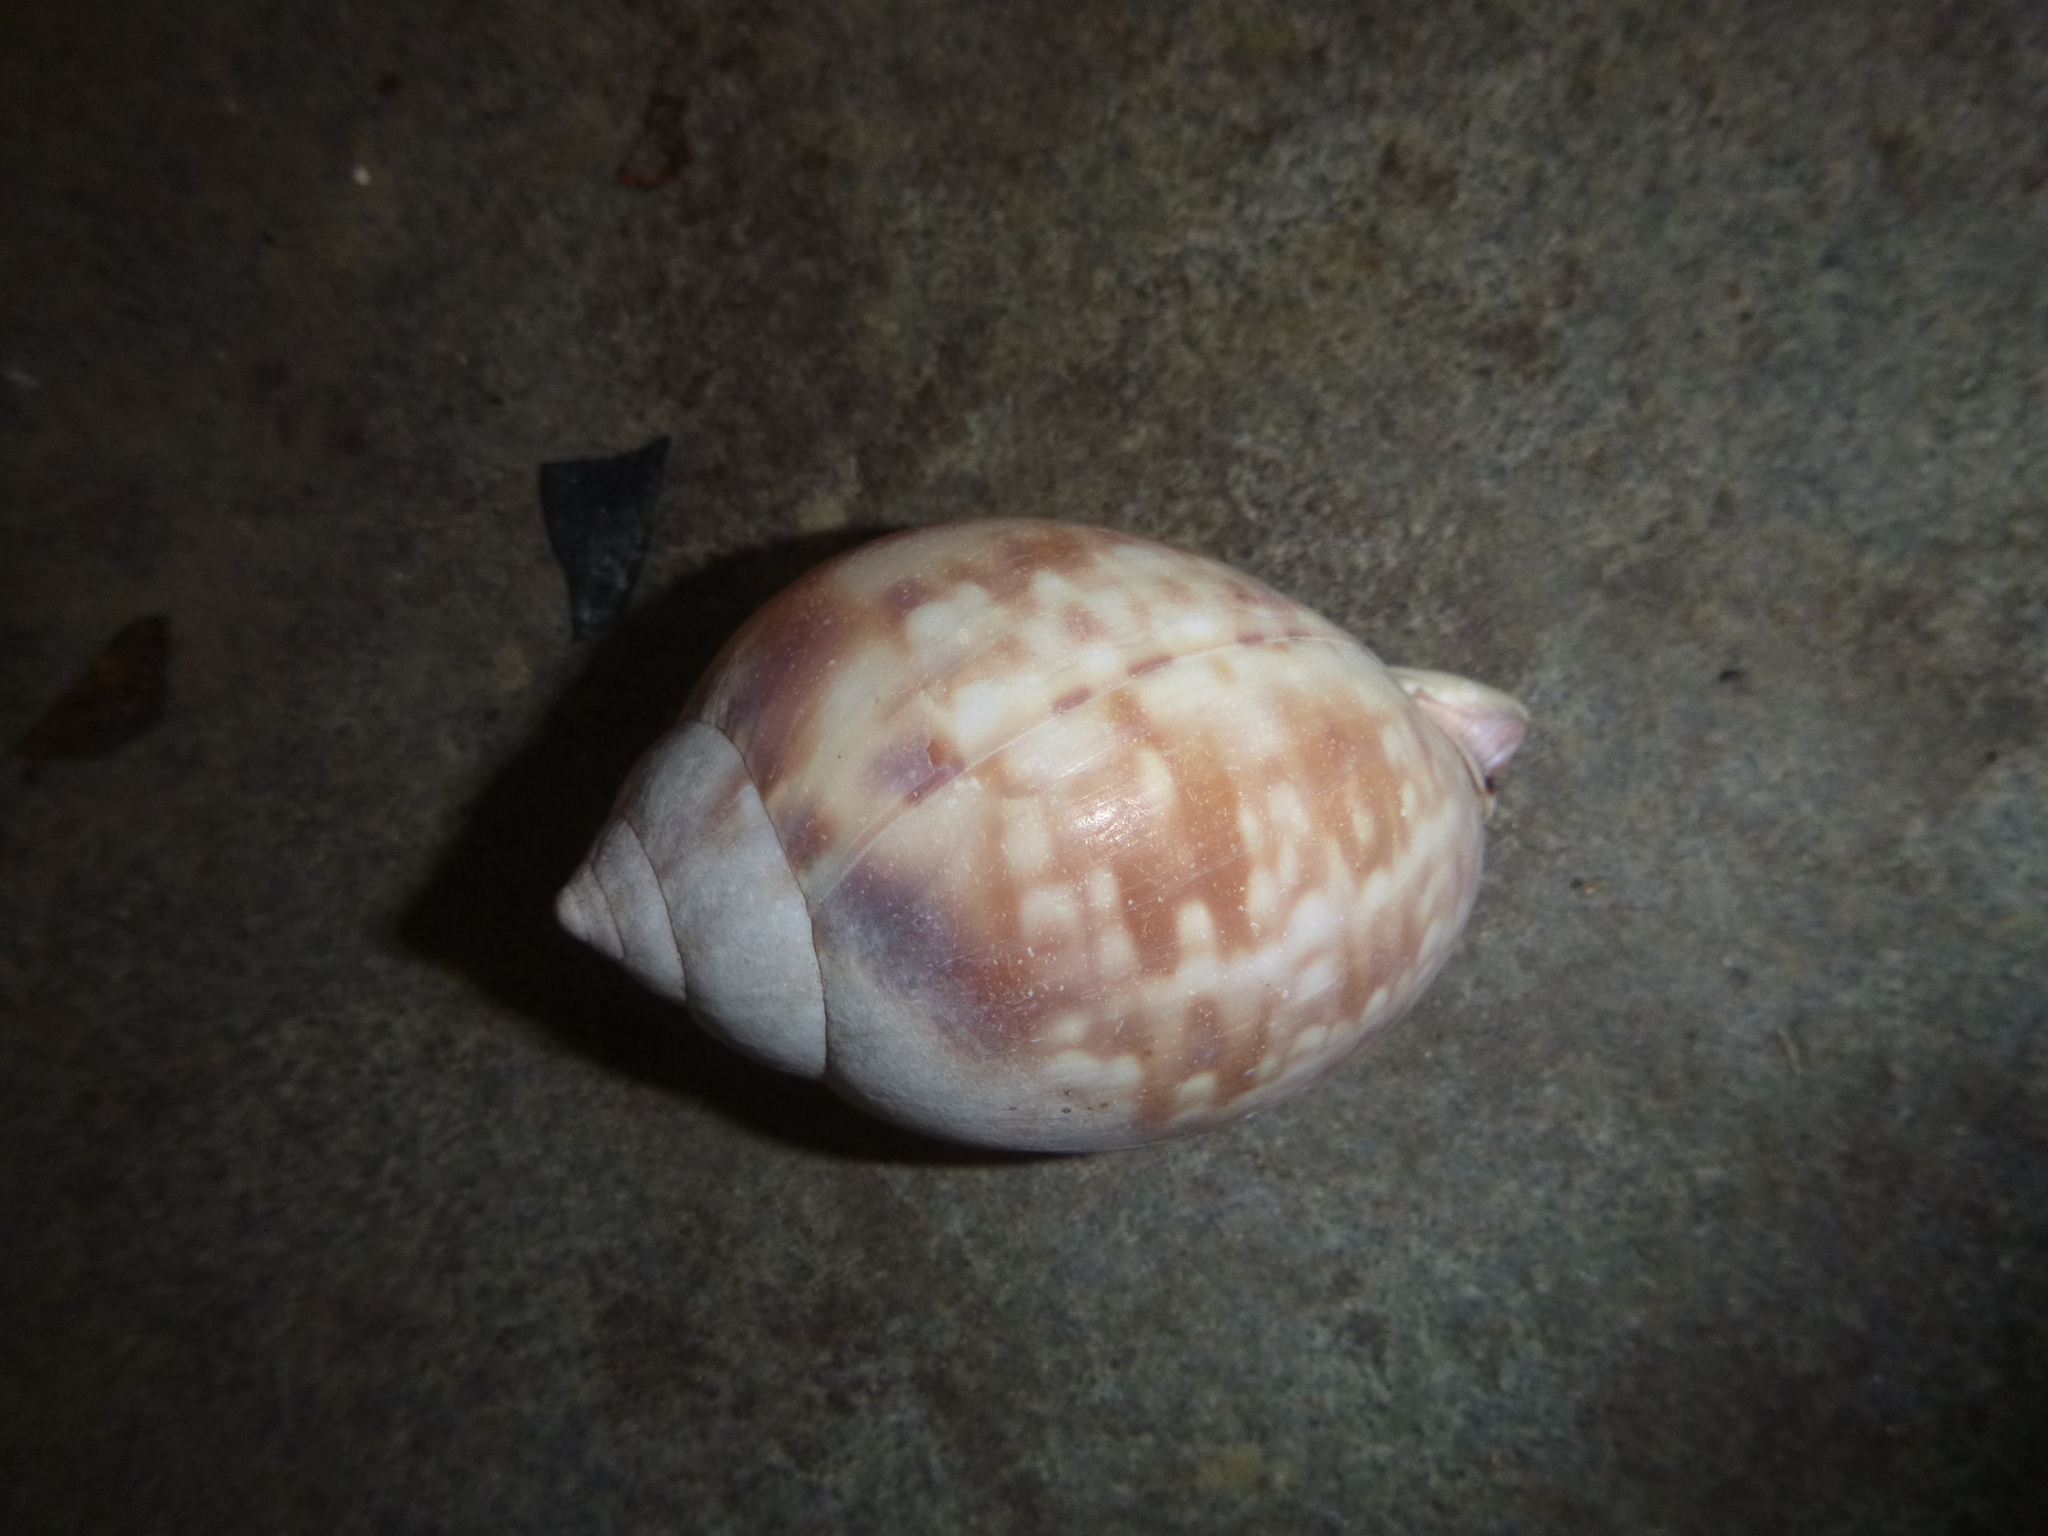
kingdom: Animalia
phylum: Mollusca
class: Gastropoda
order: Littorinimorpha
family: Cassidae
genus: Semicassis
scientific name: Semicassis labiata
